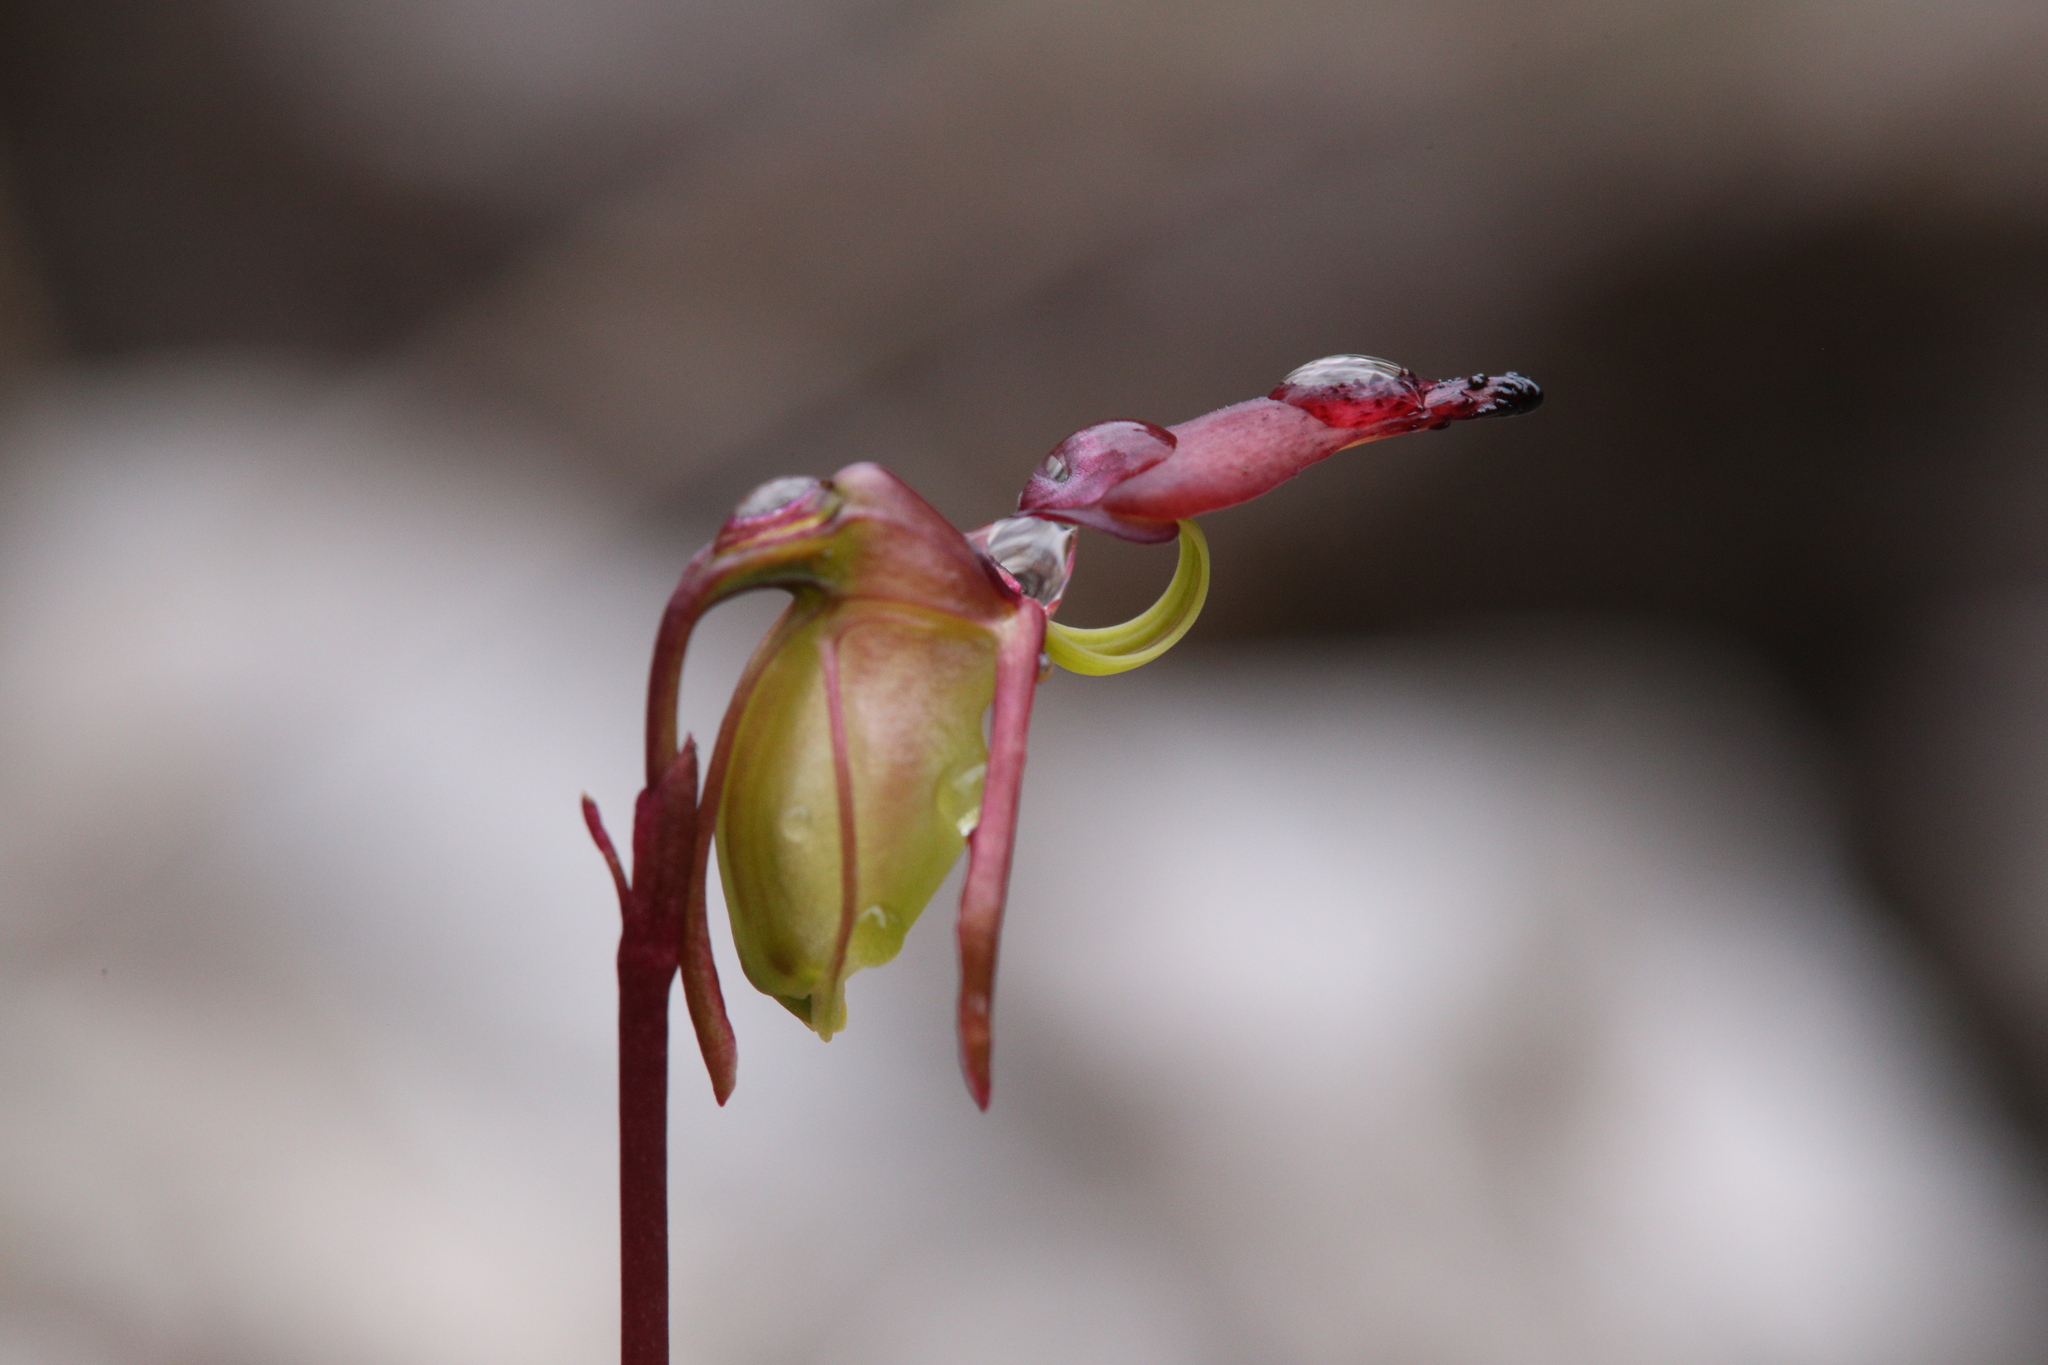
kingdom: Plantae
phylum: Tracheophyta
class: Liliopsida
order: Asparagales
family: Orchidaceae
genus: Caleana
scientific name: Caleana hortiorum
